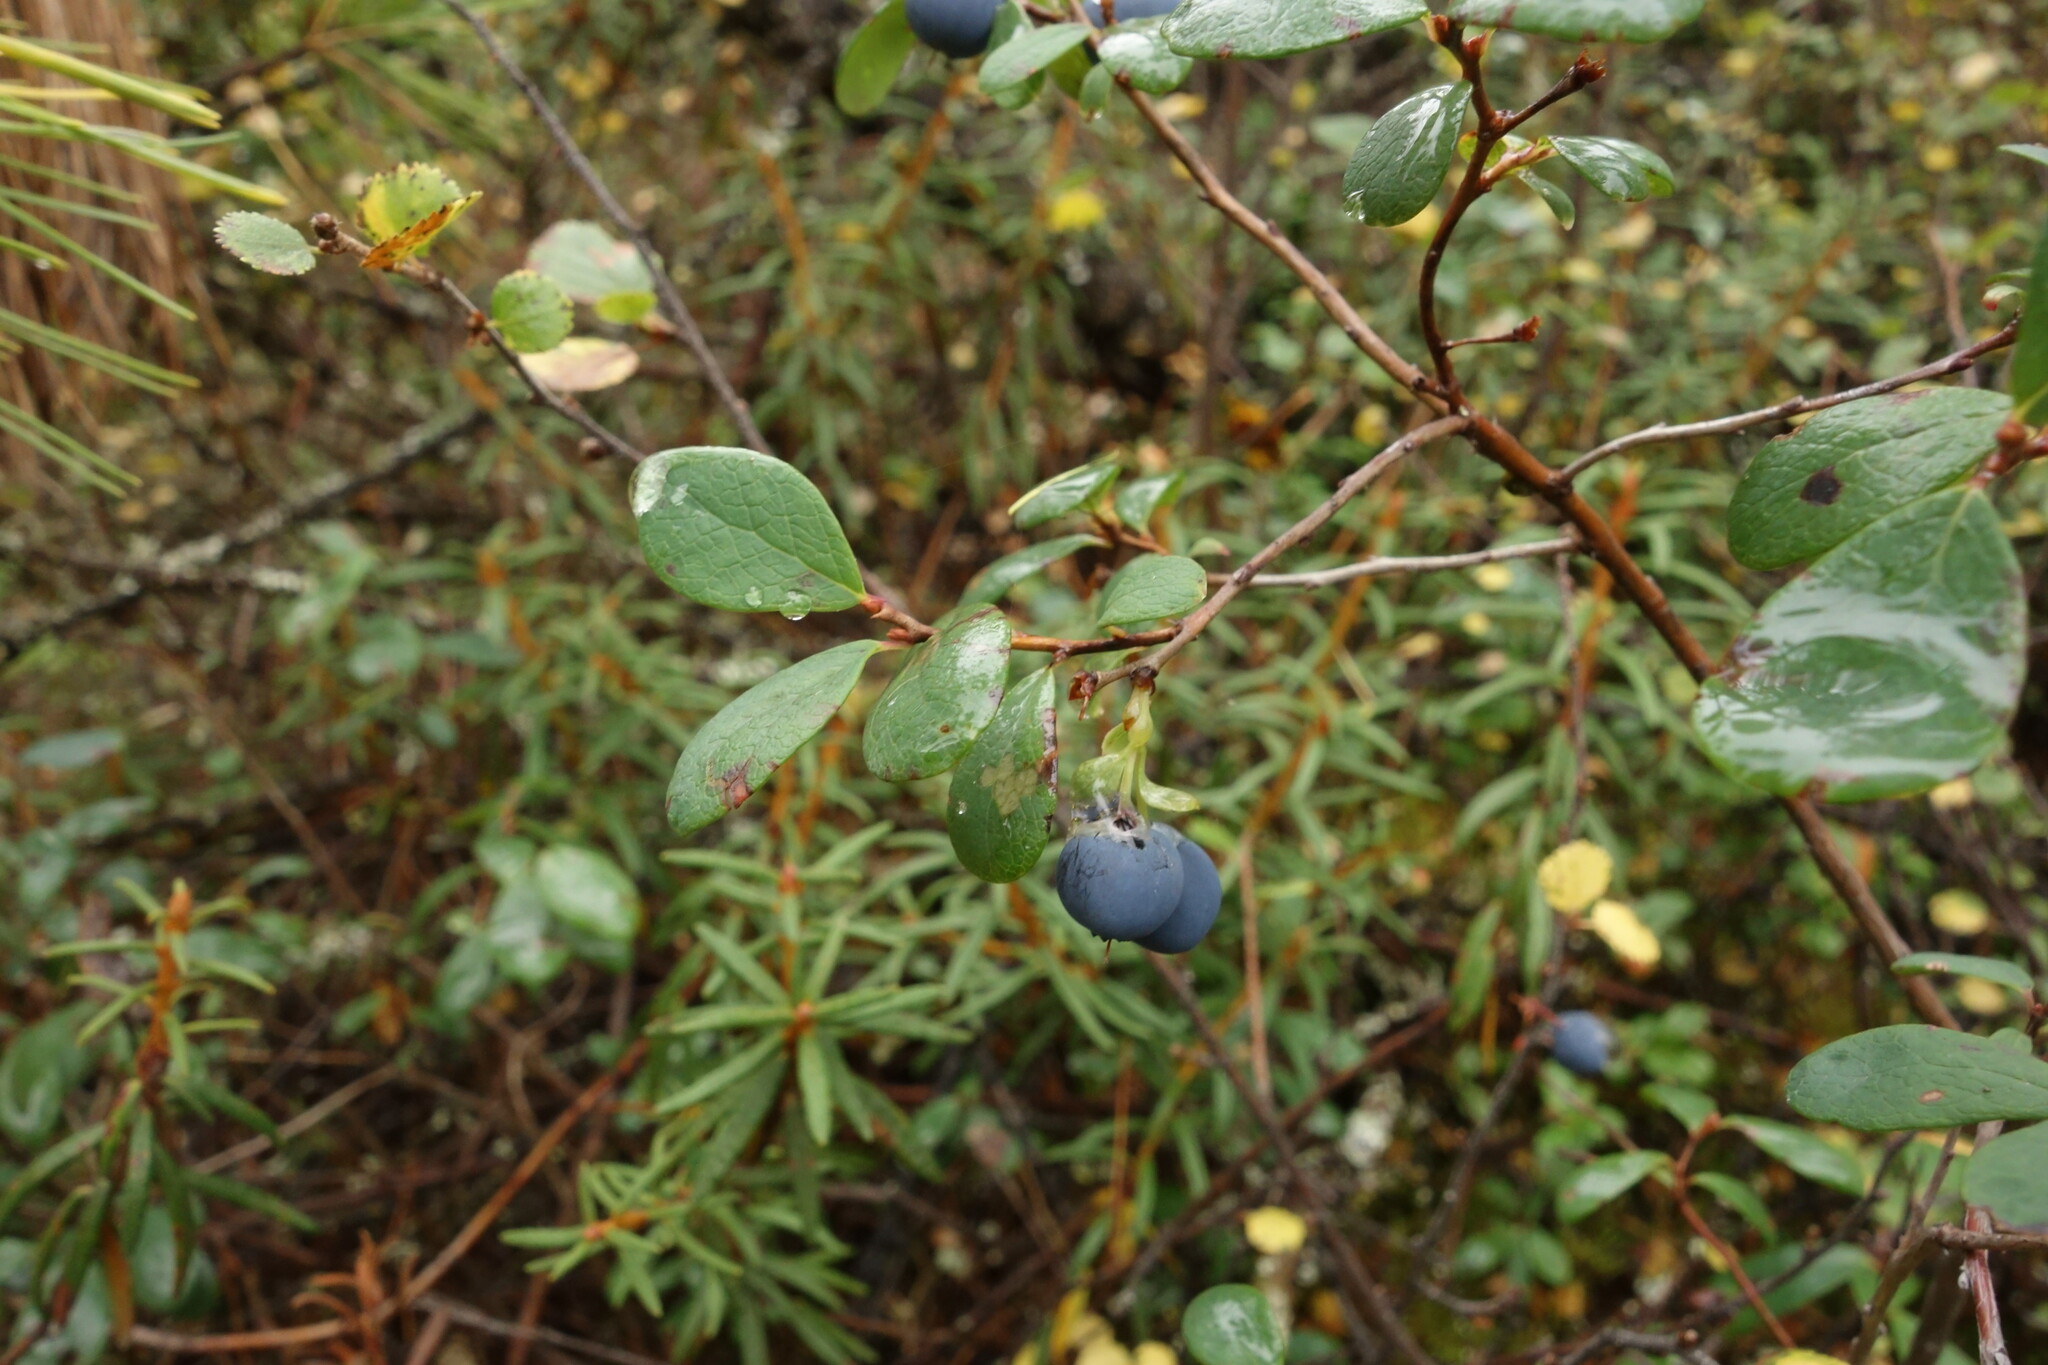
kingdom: Plantae
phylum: Tracheophyta
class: Magnoliopsida
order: Ericales
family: Ericaceae
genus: Vaccinium
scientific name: Vaccinium uliginosum
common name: Bog bilberry
